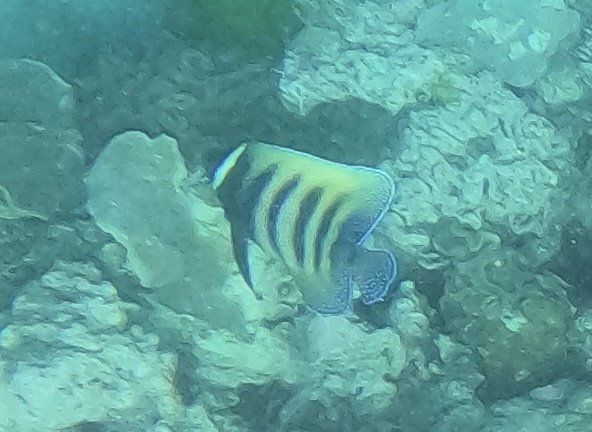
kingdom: Animalia
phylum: Chordata
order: Perciformes
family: Pomacanthidae
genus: Pomacanthus
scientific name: Pomacanthus sexstriatus
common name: Six-banded angelfish
